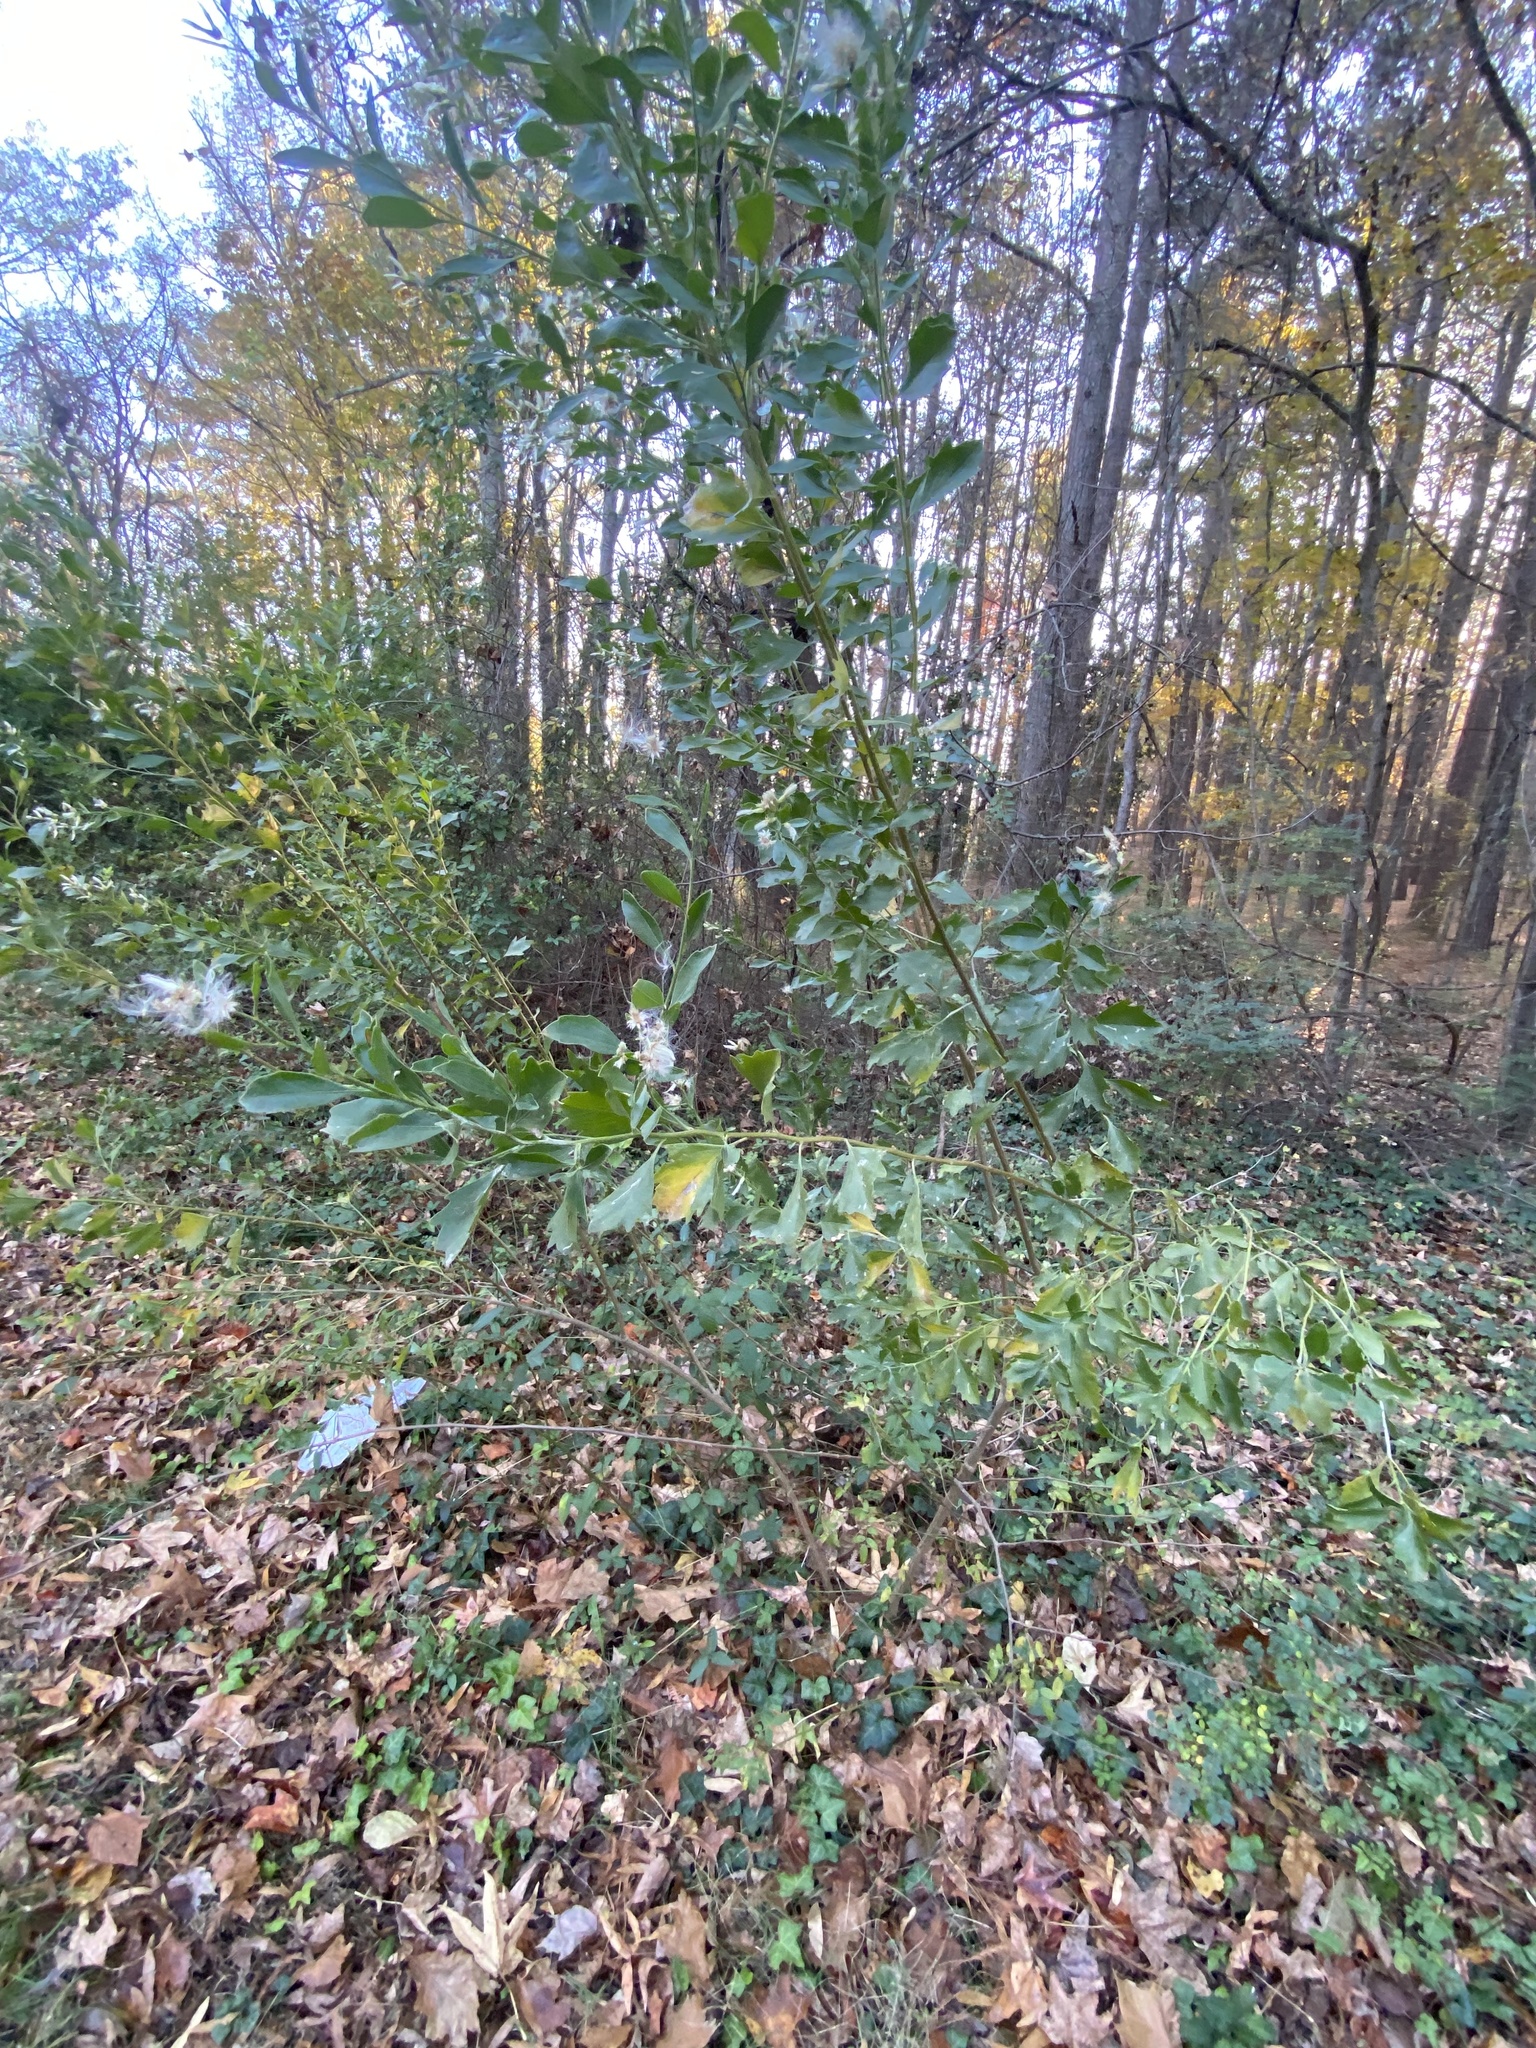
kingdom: Plantae
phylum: Tracheophyta
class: Magnoliopsida
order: Asterales
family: Asteraceae
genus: Baccharis
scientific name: Baccharis halimifolia
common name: Eastern baccharis
